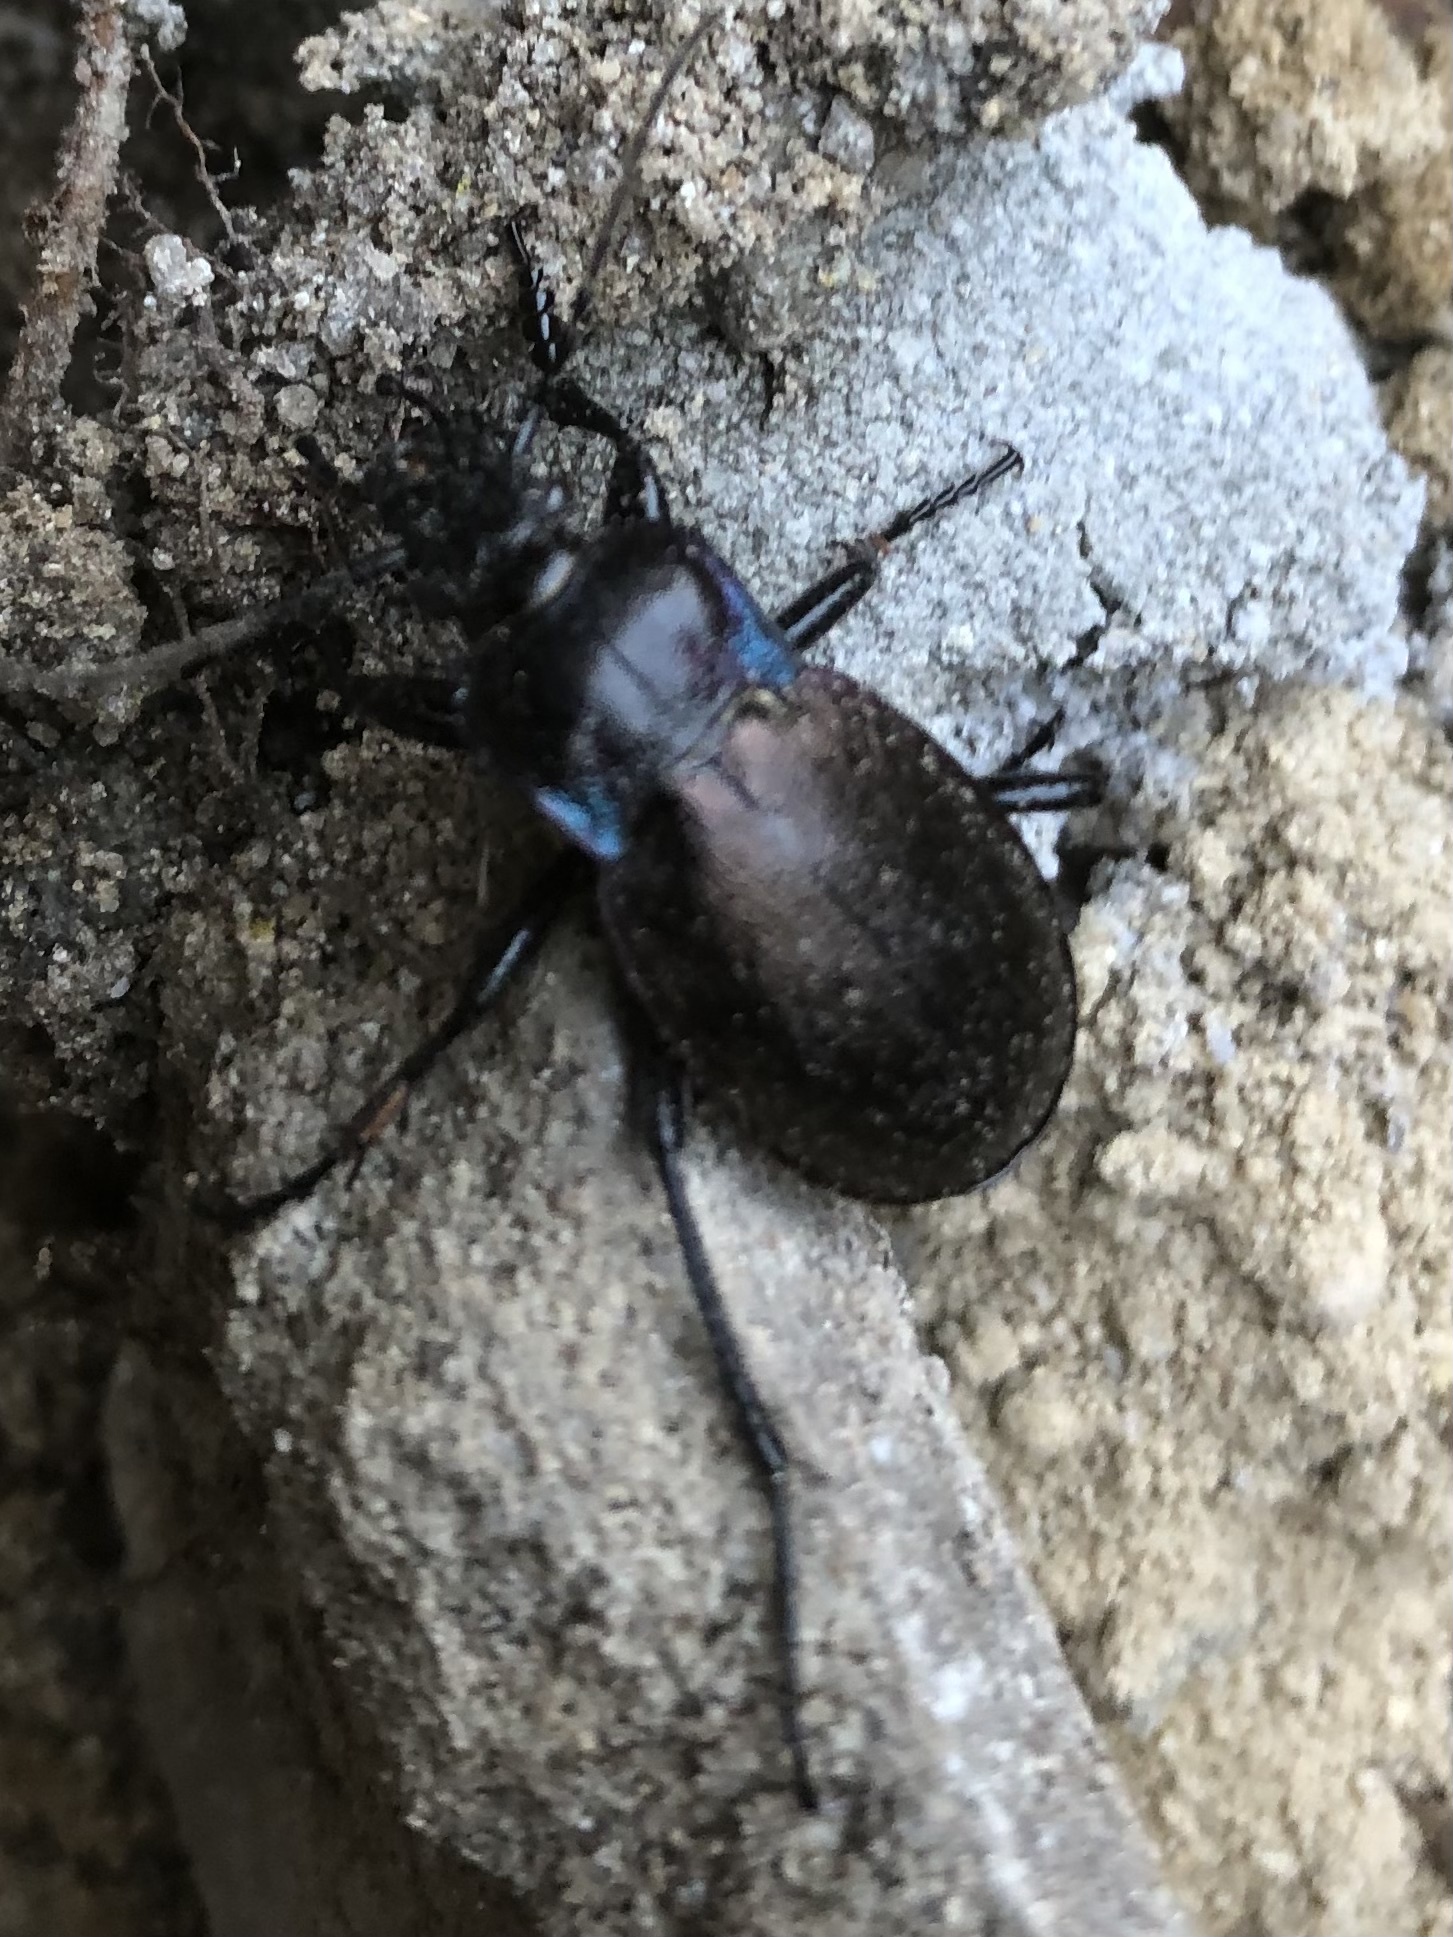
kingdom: Animalia
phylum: Arthropoda
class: Insecta
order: Coleoptera
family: Carabidae
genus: Carabus
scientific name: Carabus nemoralis
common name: European ground beetle
